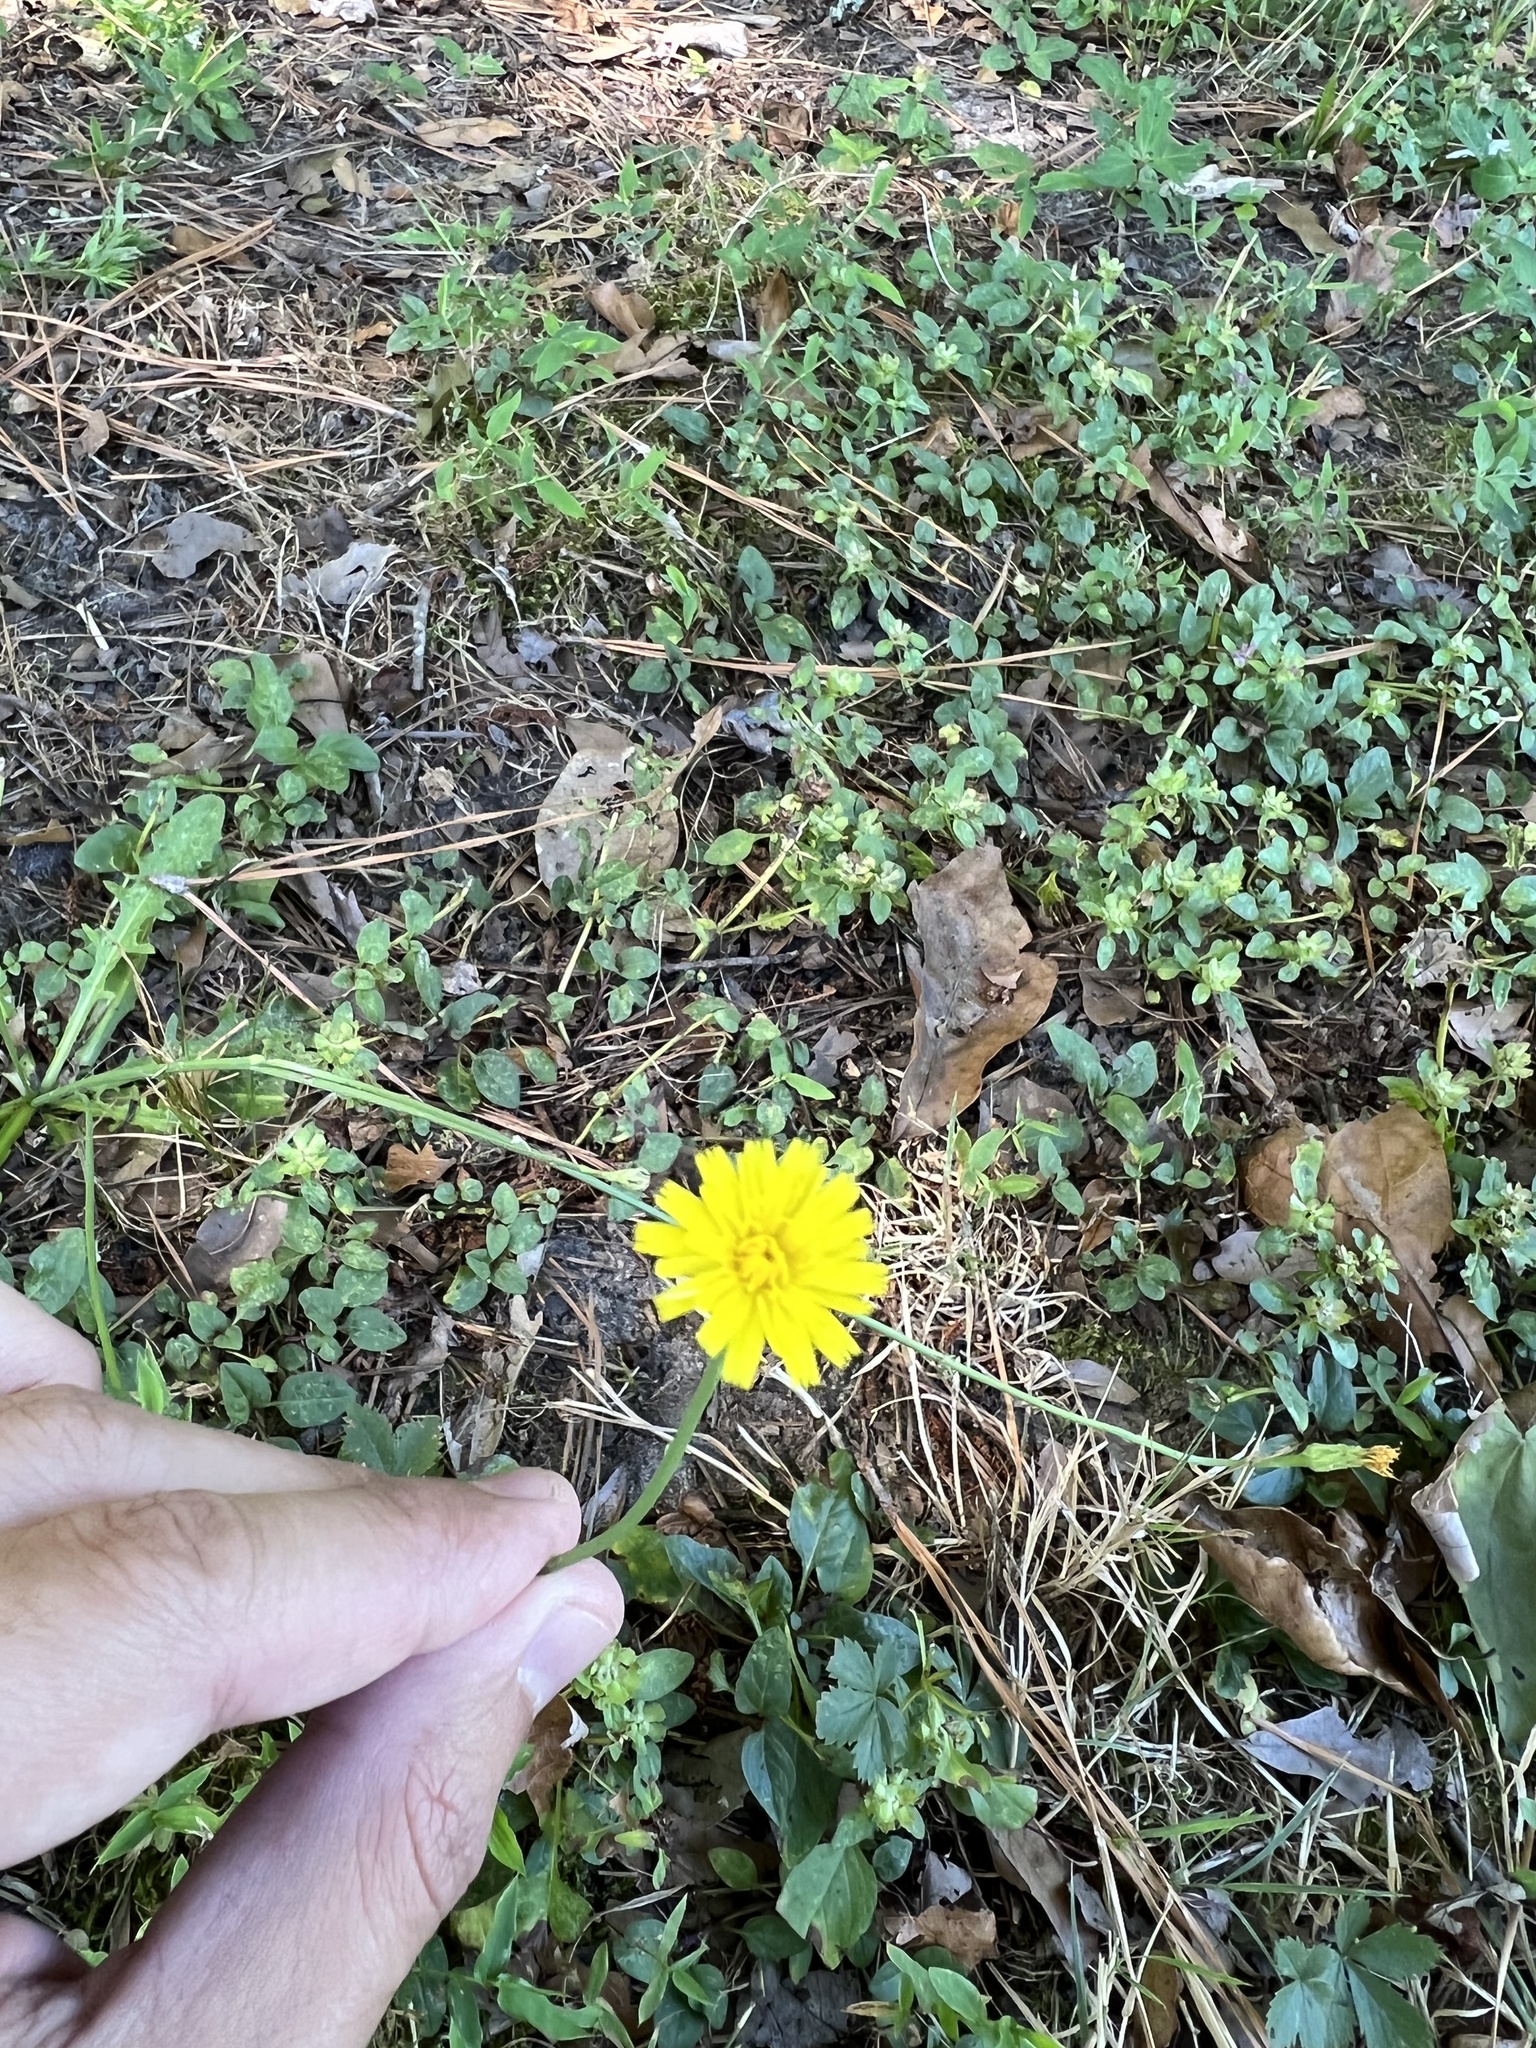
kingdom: Plantae
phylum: Tracheophyta
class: Magnoliopsida
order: Asterales
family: Asteraceae
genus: Hypochaeris
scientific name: Hypochaeris radicata
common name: Flatweed
